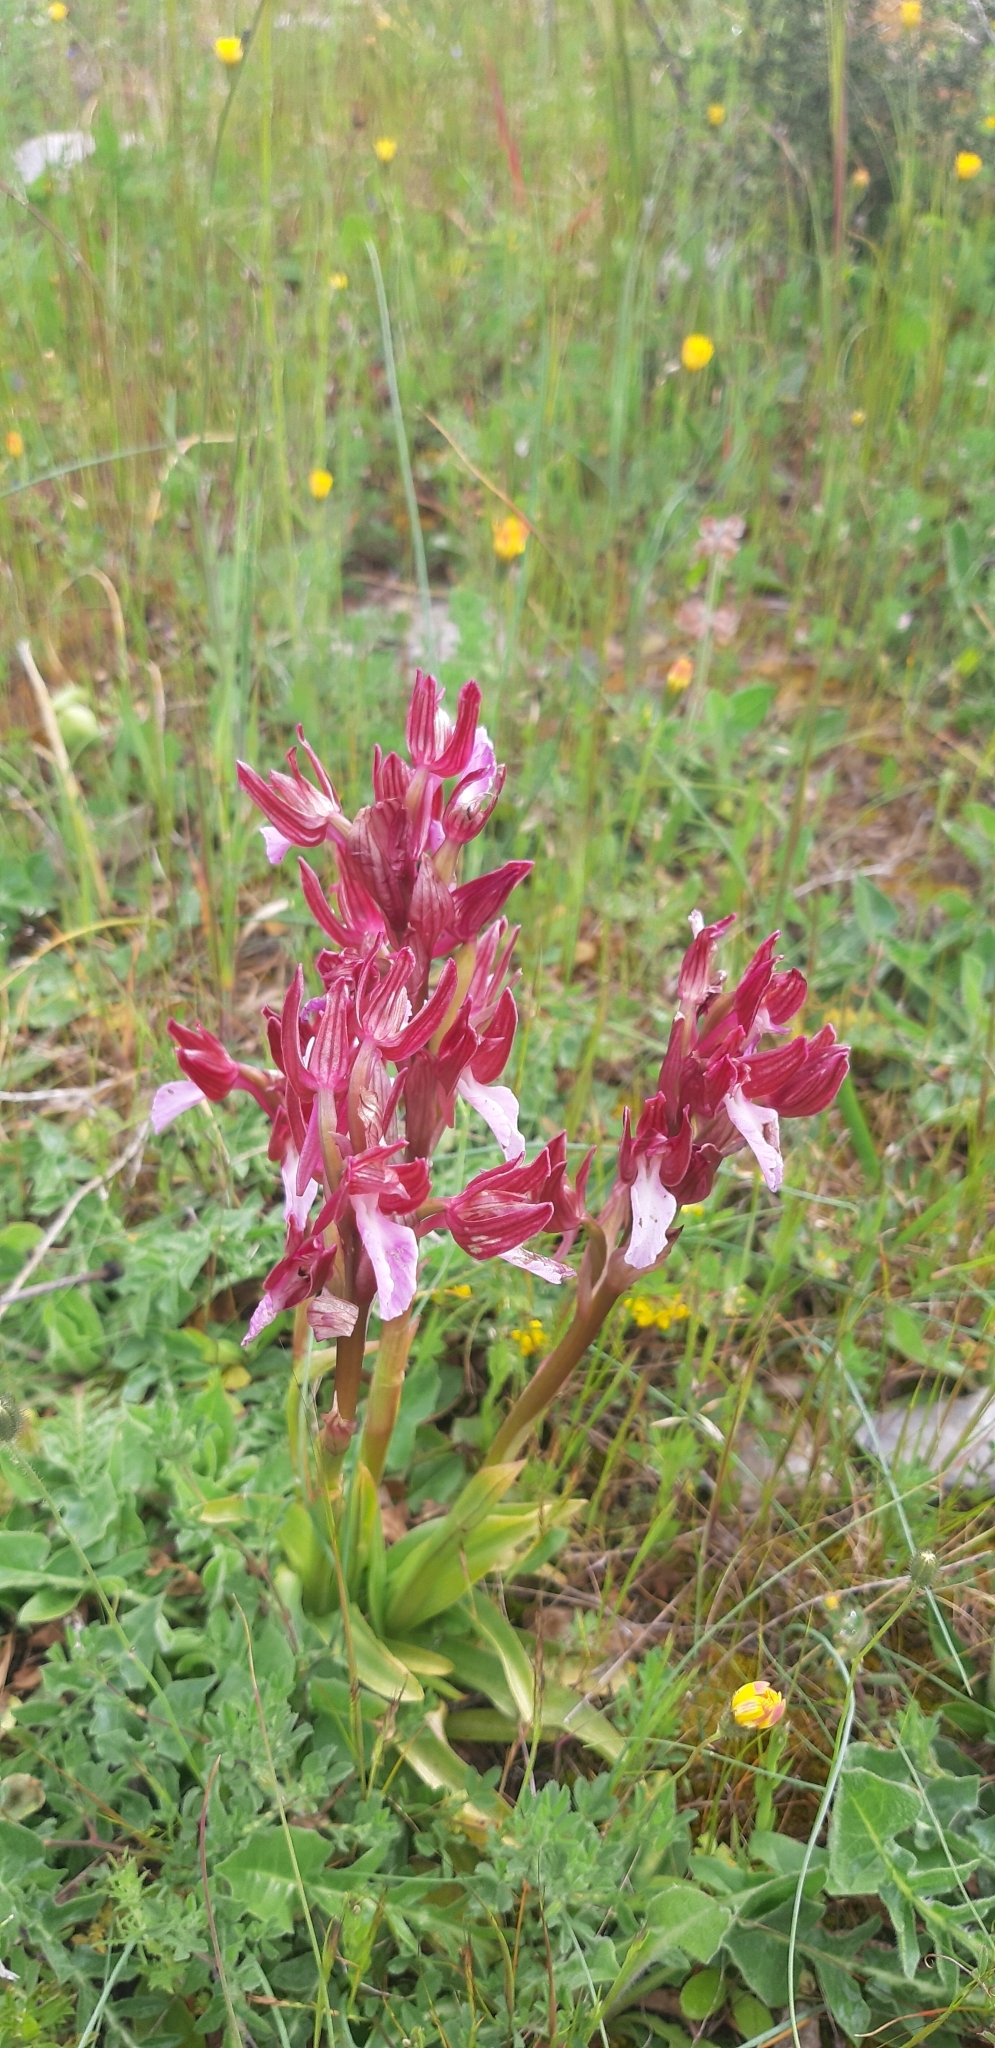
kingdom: Plantae
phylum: Tracheophyta
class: Liliopsida
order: Asparagales
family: Orchidaceae
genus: Anacamptis
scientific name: Anacamptis papilionacea
